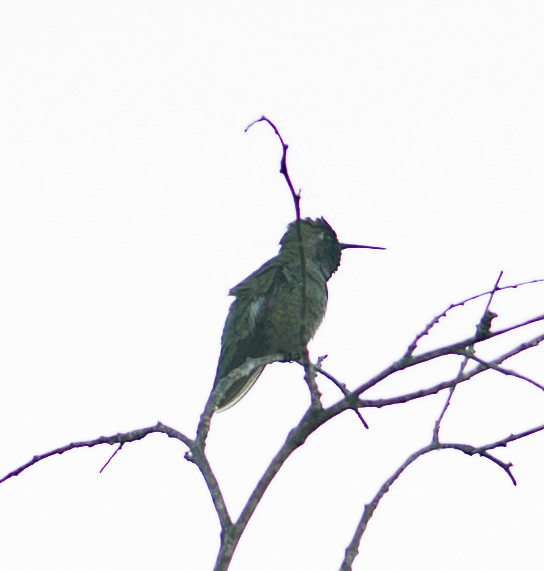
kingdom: Animalia
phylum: Chordata
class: Aves
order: Apodiformes
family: Trochilidae
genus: Calypte
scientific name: Calypte anna
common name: Anna's hummingbird
